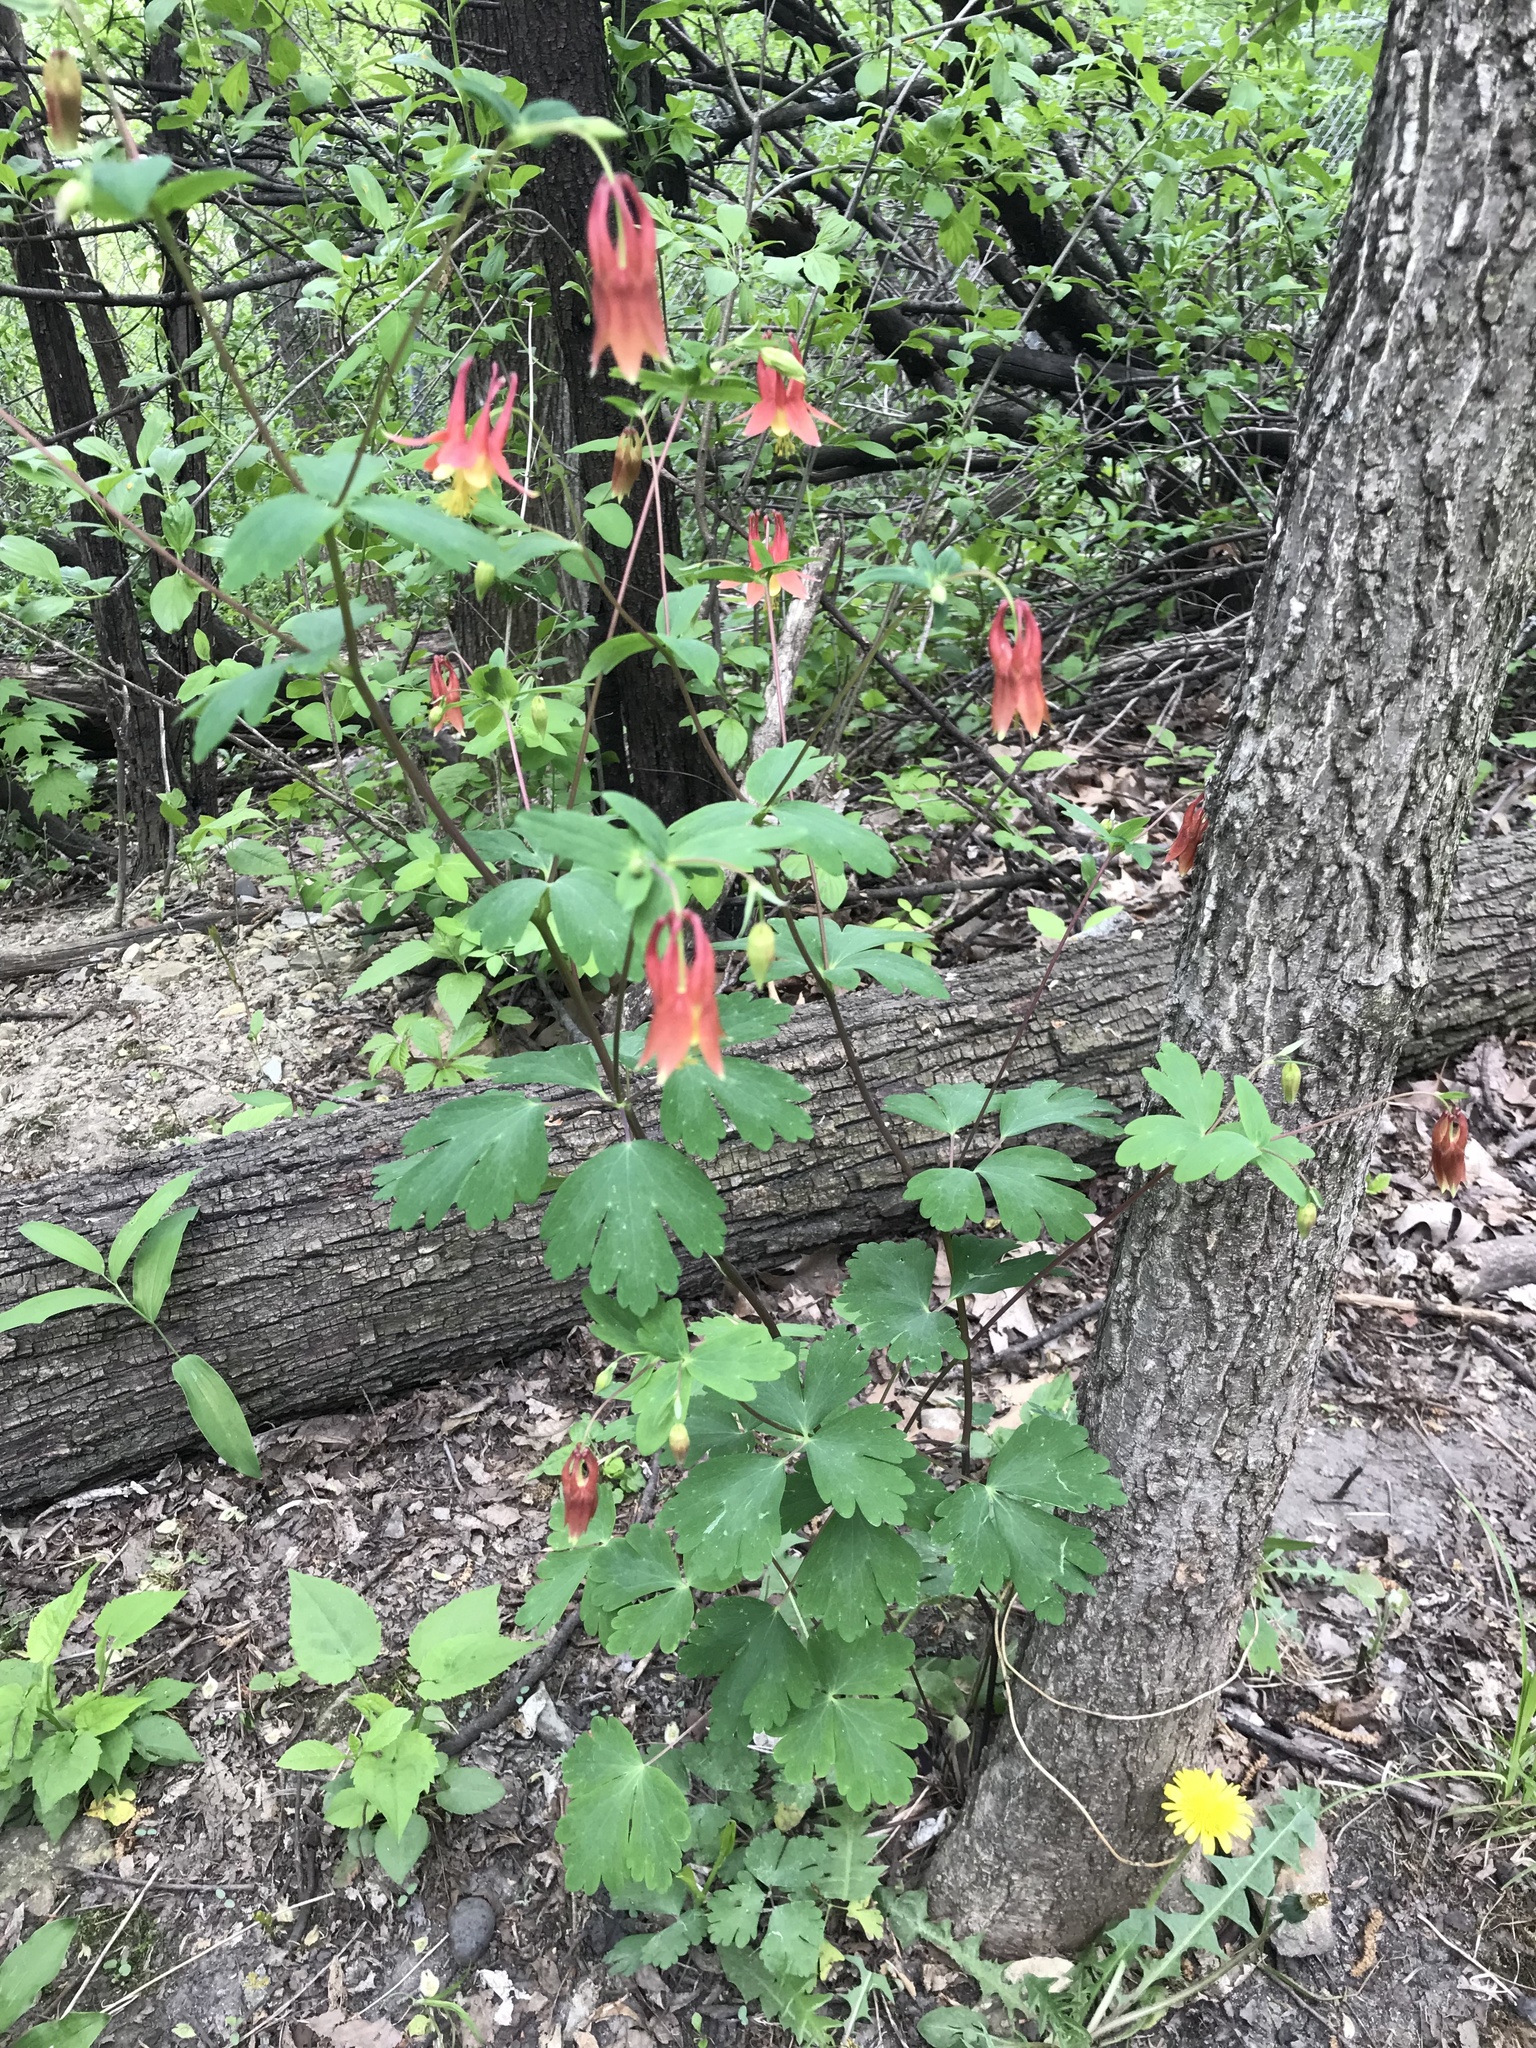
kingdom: Plantae
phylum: Tracheophyta
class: Magnoliopsida
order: Ranunculales
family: Ranunculaceae
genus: Aquilegia
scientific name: Aquilegia canadensis
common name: American columbine
